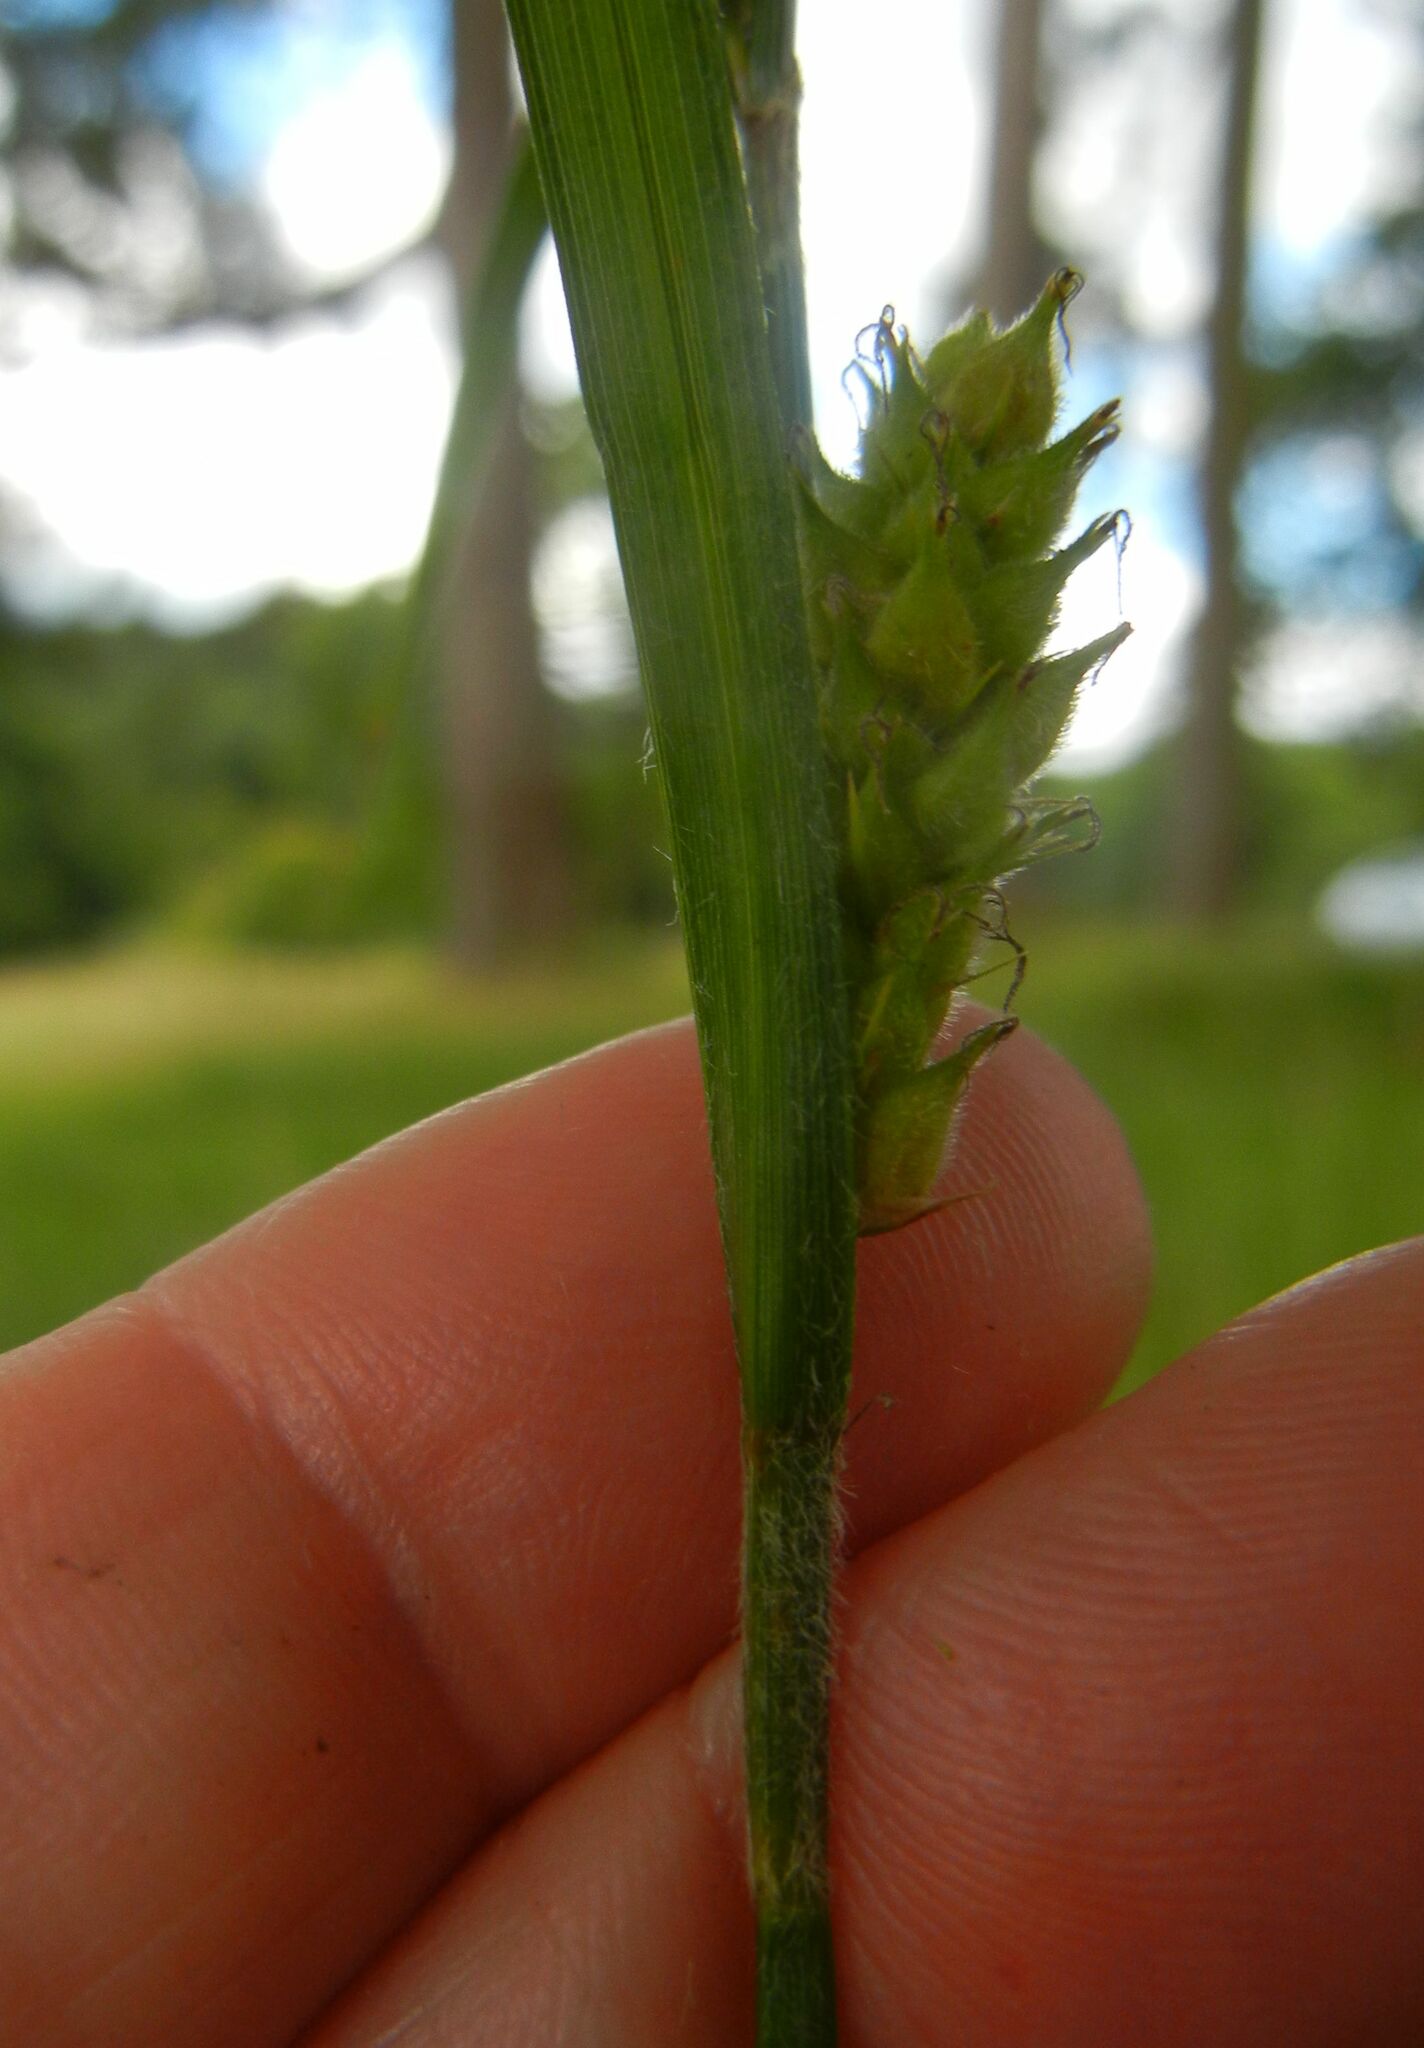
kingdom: Plantae
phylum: Tracheophyta
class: Liliopsida
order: Poales
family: Cyperaceae
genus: Carex
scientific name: Carex hirta
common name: Hairy sedge
